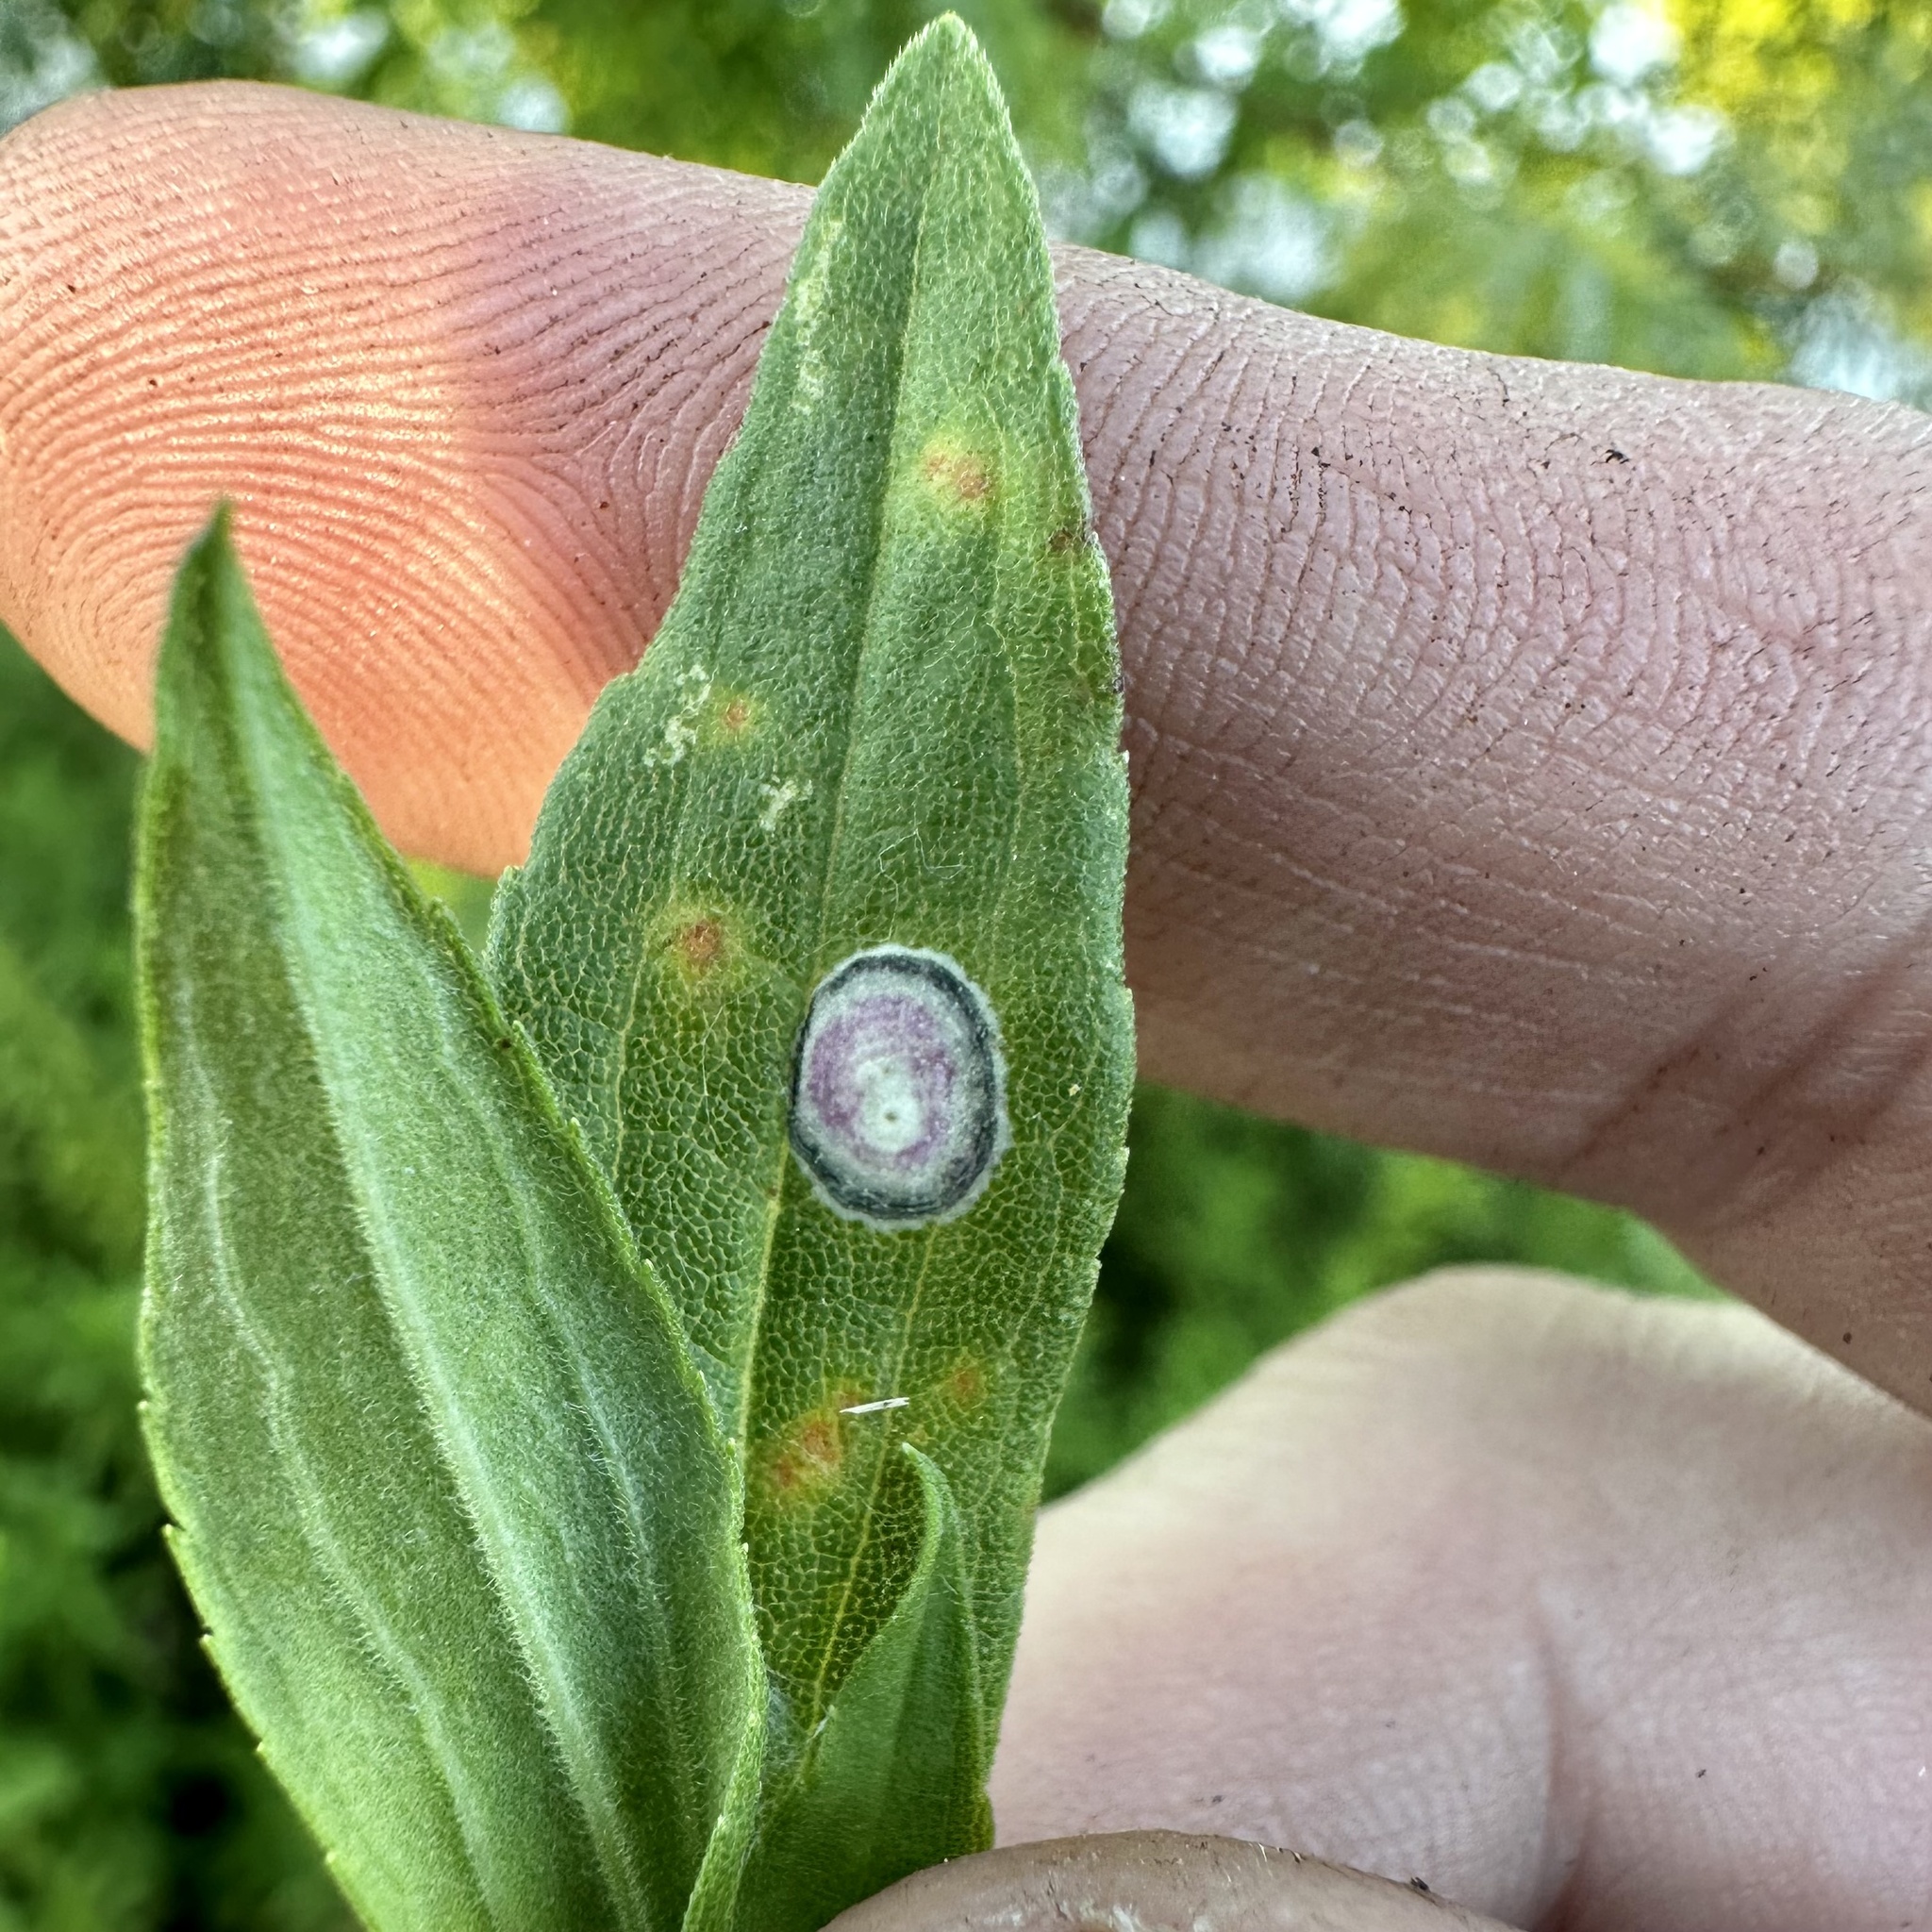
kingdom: Animalia
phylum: Arthropoda
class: Insecta
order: Diptera
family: Cecidomyiidae
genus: Asteromyia
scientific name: Asteromyia carbonifera
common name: Carbonifera goldenrod gall midge
